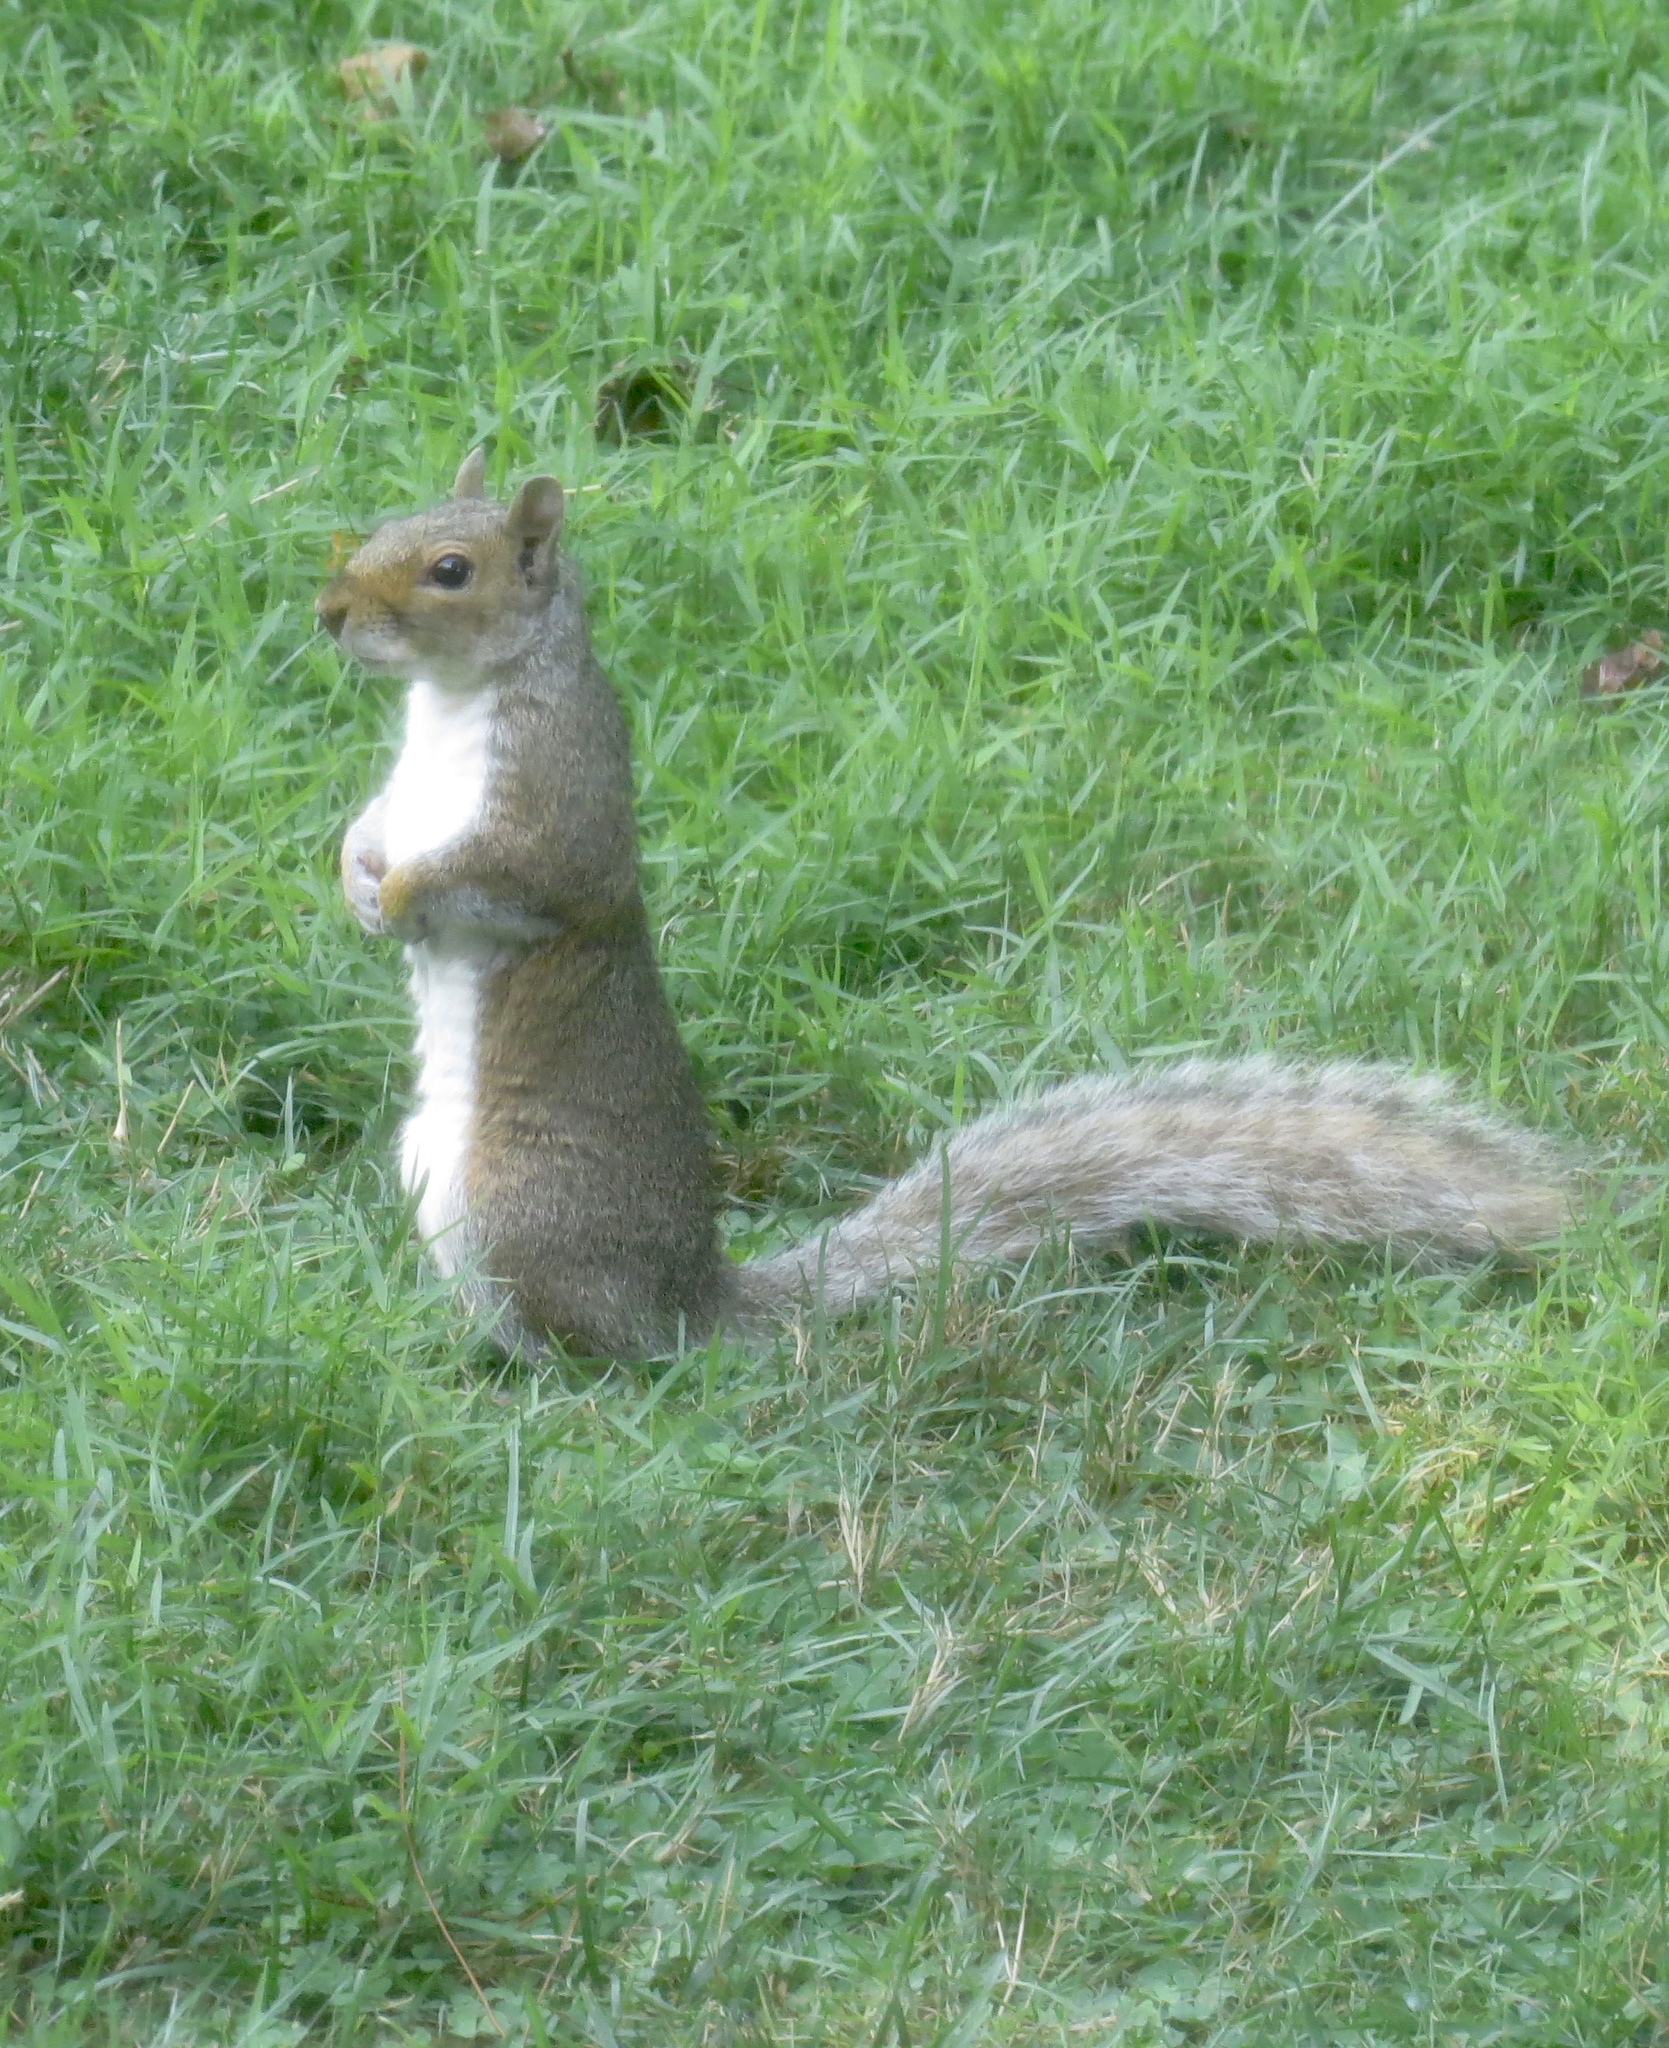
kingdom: Animalia
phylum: Chordata
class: Mammalia
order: Rodentia
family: Sciuridae
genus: Sciurus
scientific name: Sciurus carolinensis
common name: Eastern gray squirrel
